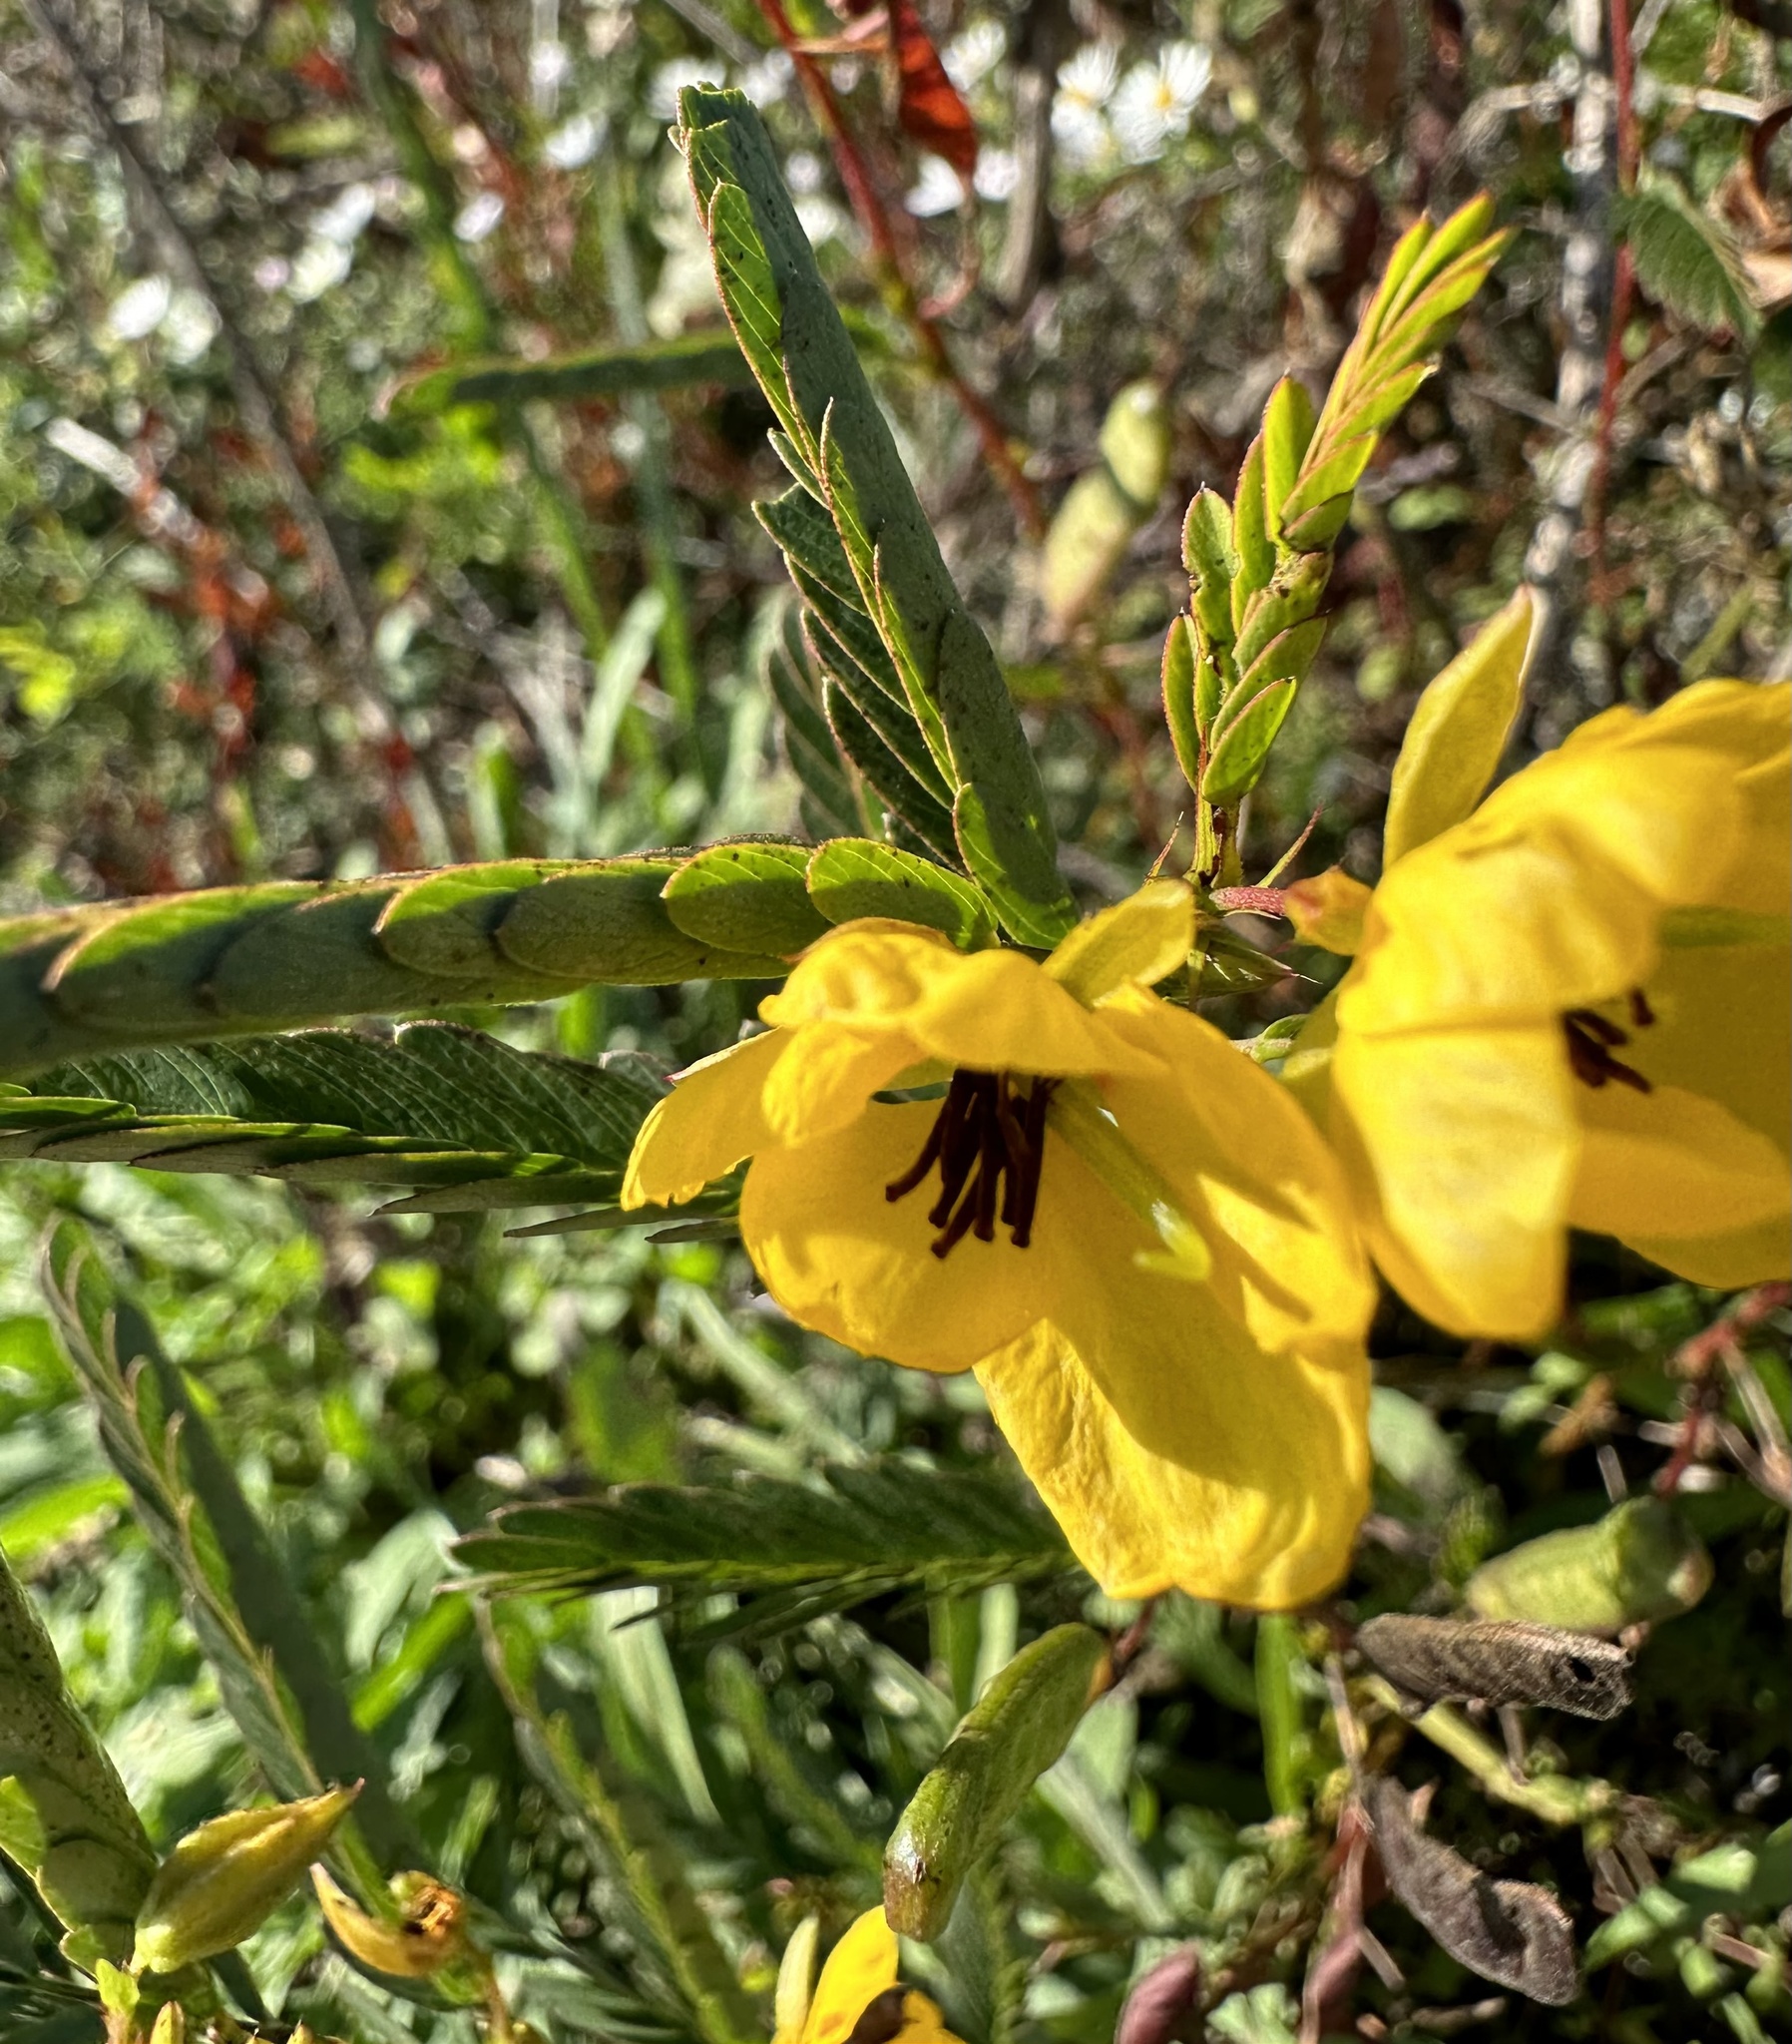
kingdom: Plantae
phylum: Tracheophyta
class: Magnoliopsida
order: Fabales
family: Fabaceae
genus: Chamaecrista
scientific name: Chamaecrista fasciculata
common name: Golden cassia
